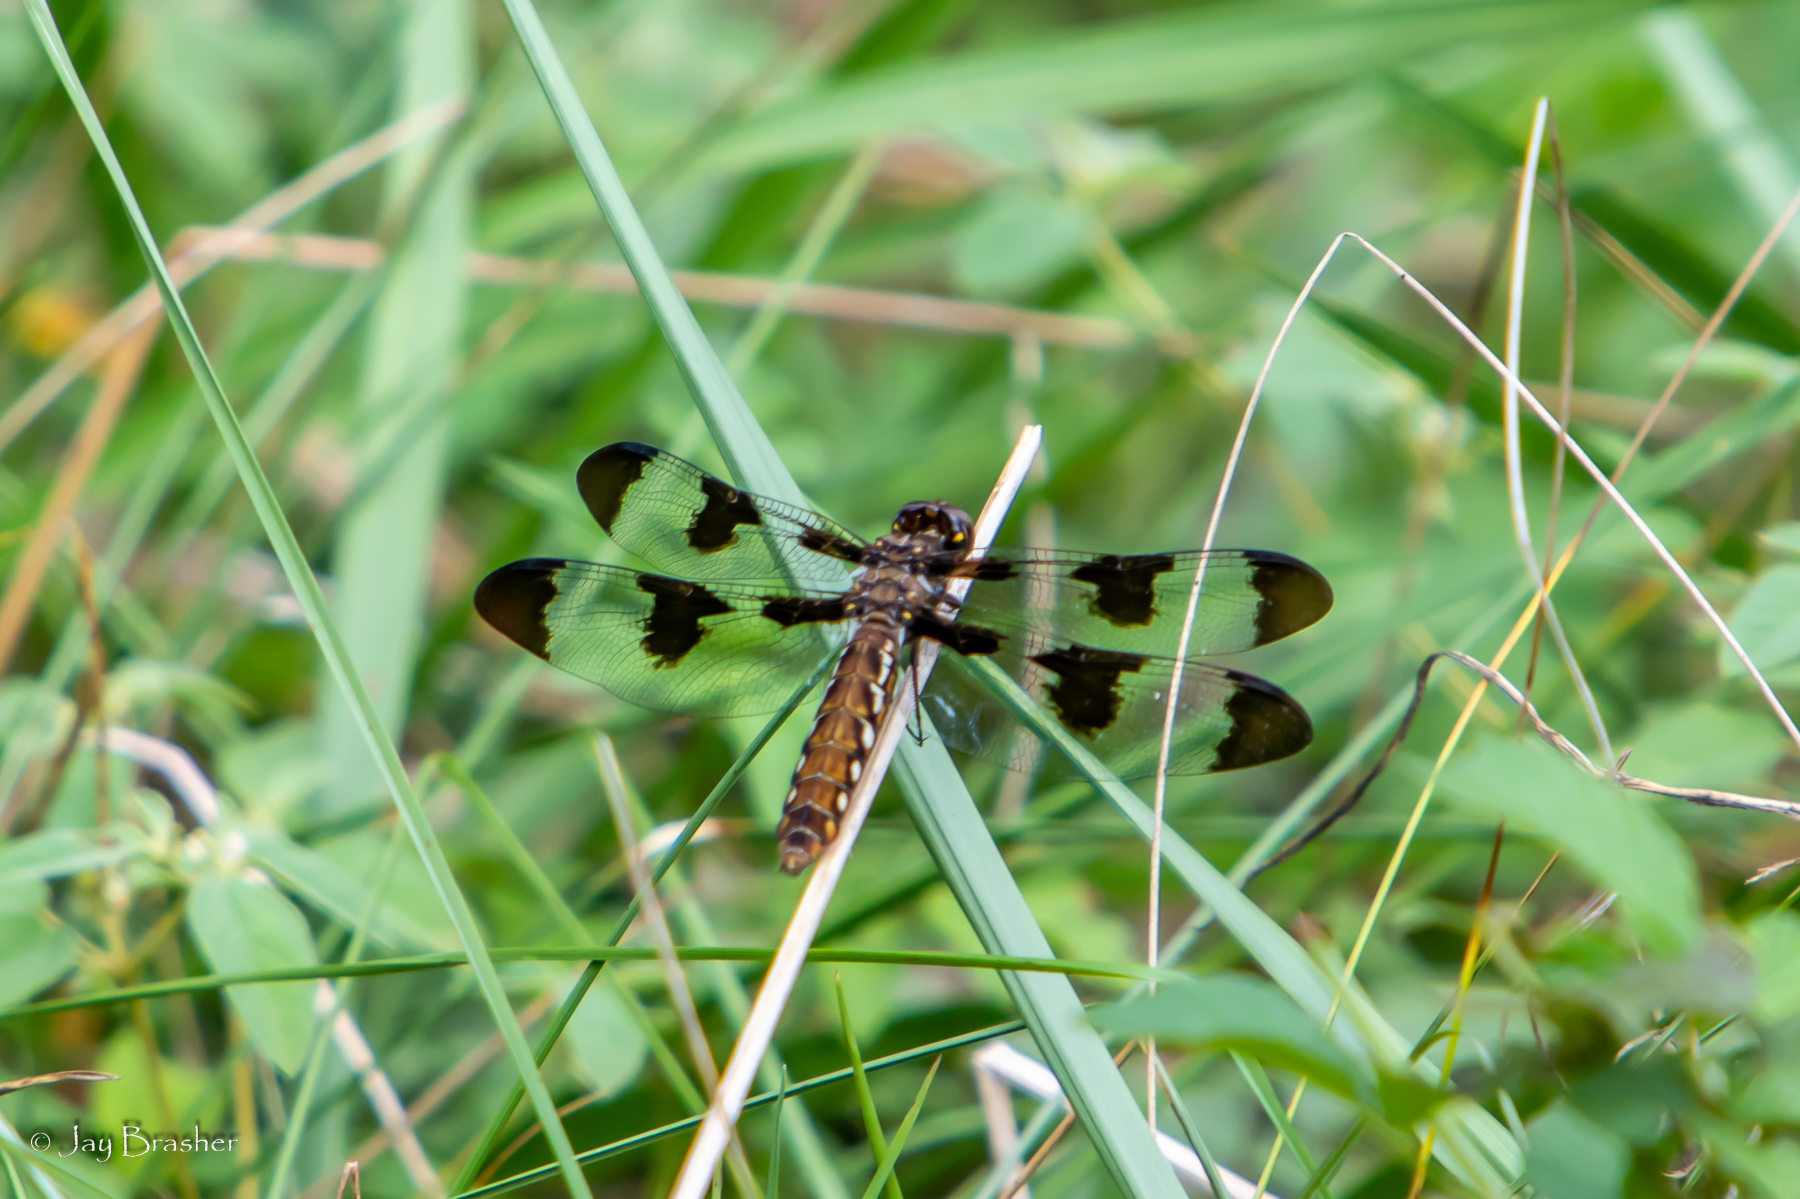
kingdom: Animalia
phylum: Arthropoda
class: Insecta
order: Odonata
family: Libellulidae
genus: Plathemis
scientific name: Plathemis lydia
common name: Common whitetail
